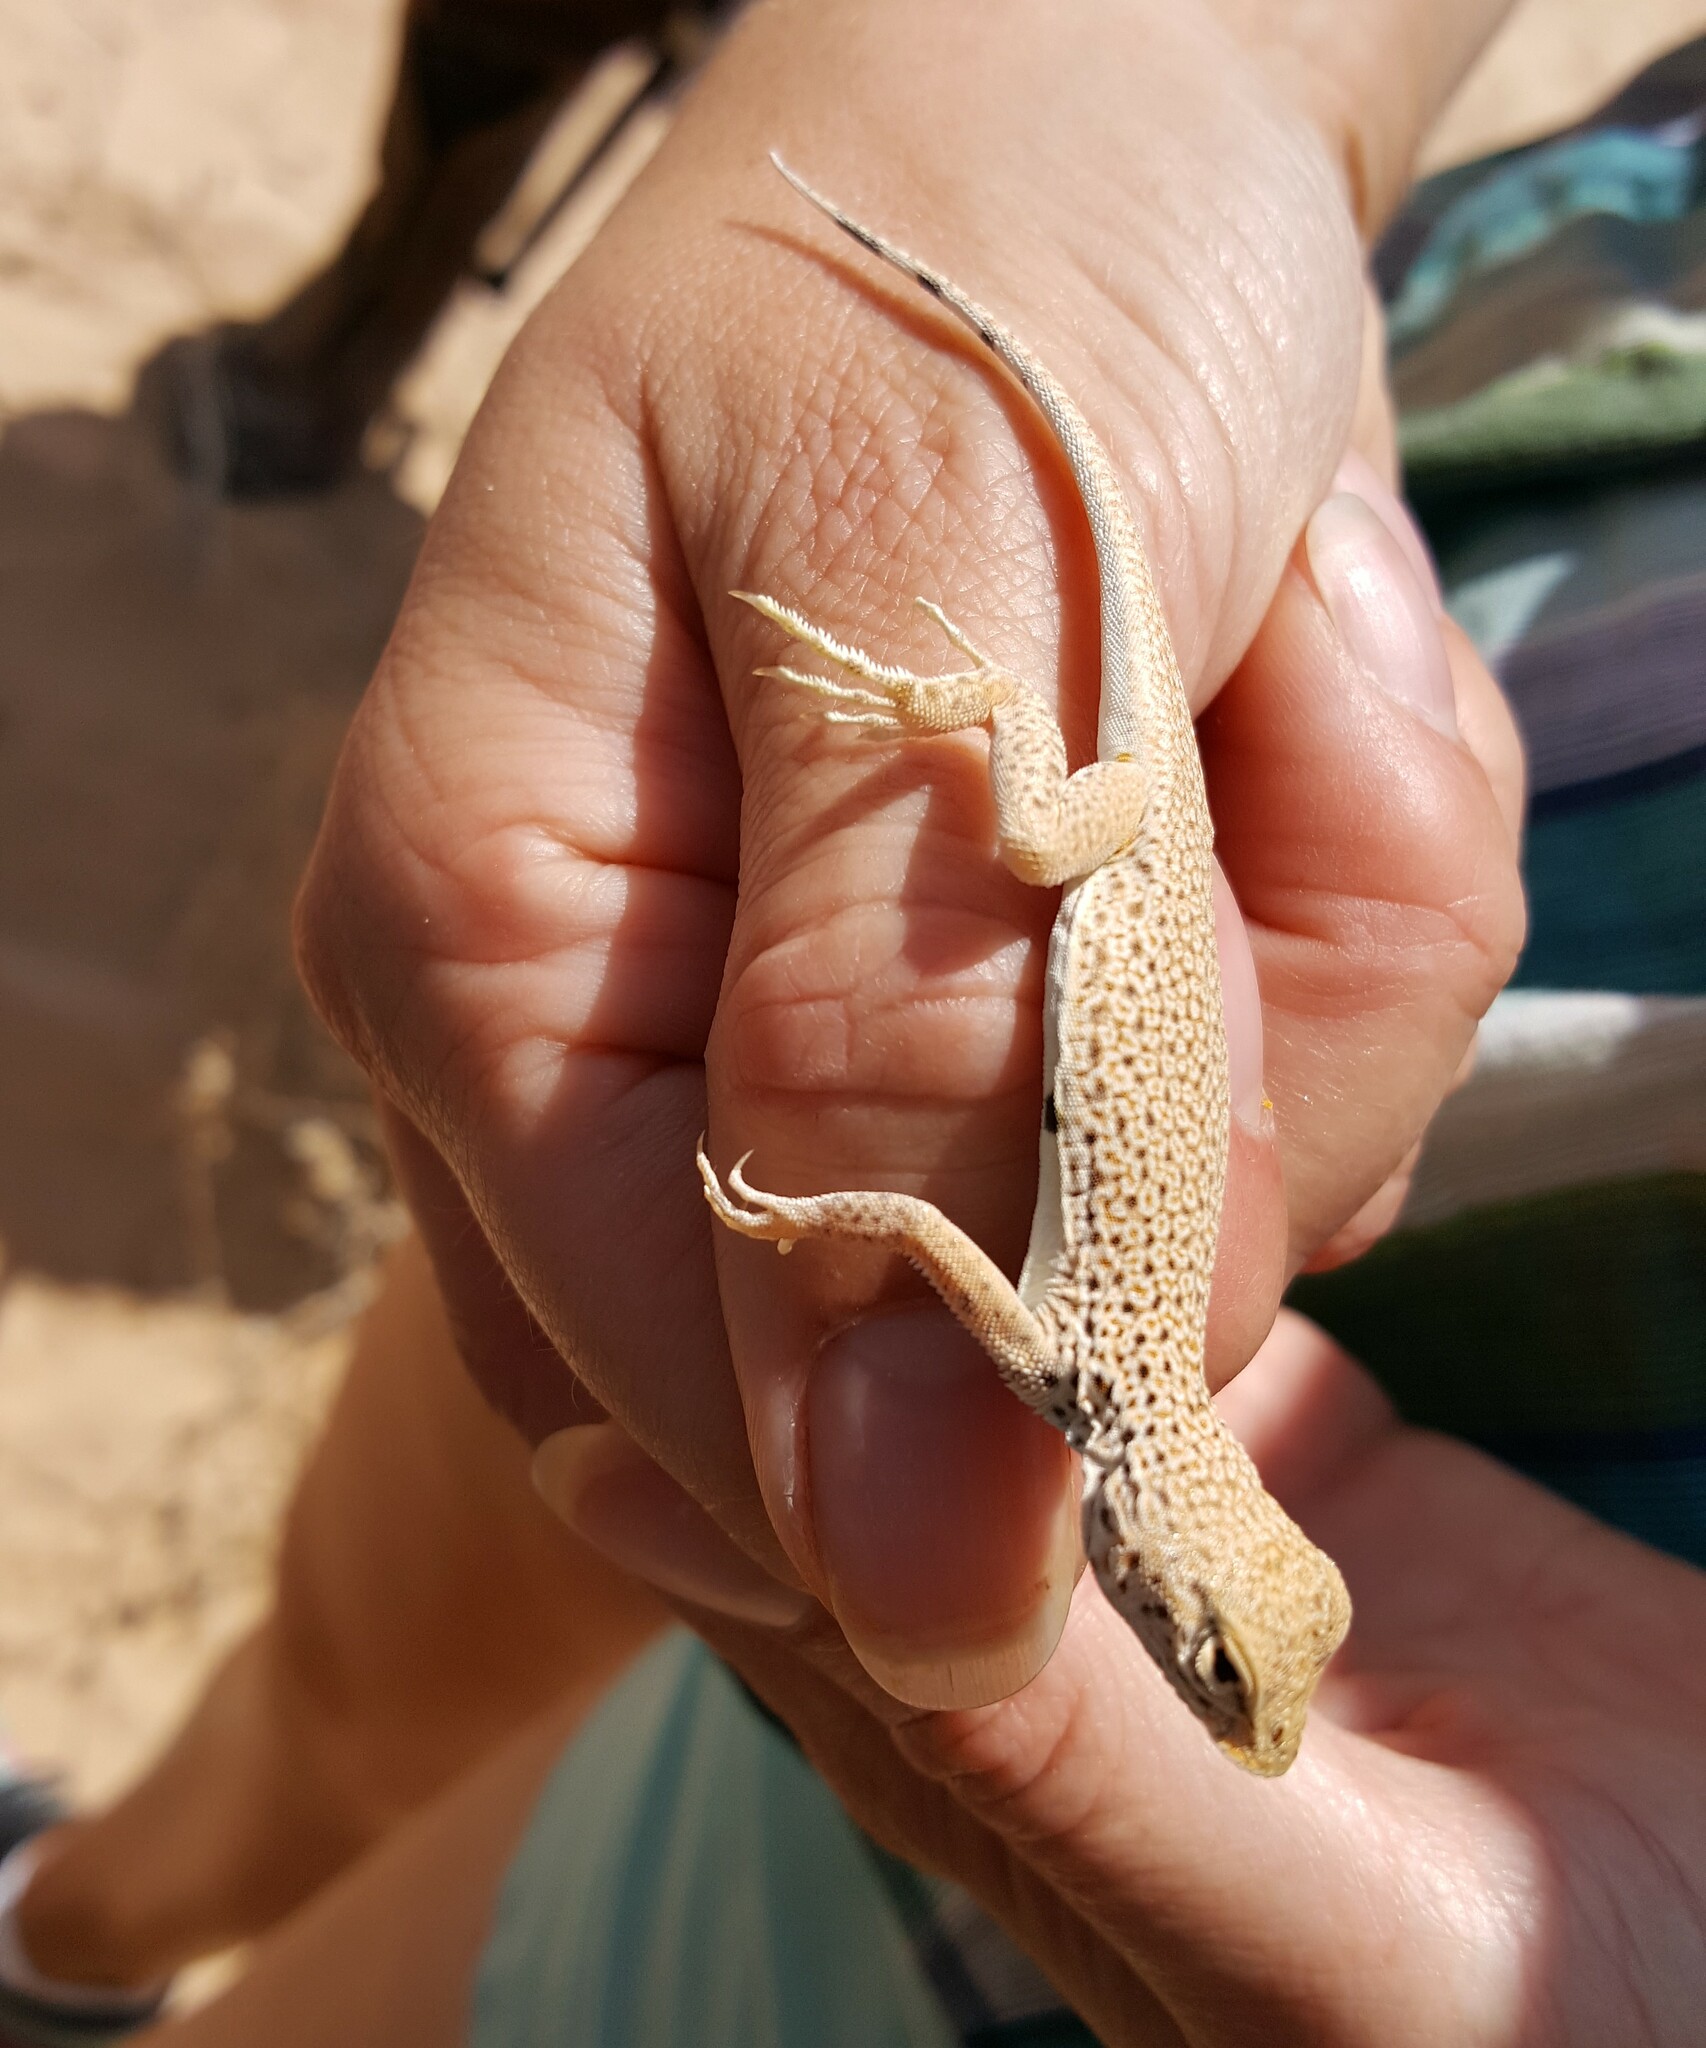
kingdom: Animalia
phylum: Chordata
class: Squamata
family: Phrynosomatidae
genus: Uma
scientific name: Uma scoparia
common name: Mojave fringe-toed lizard
